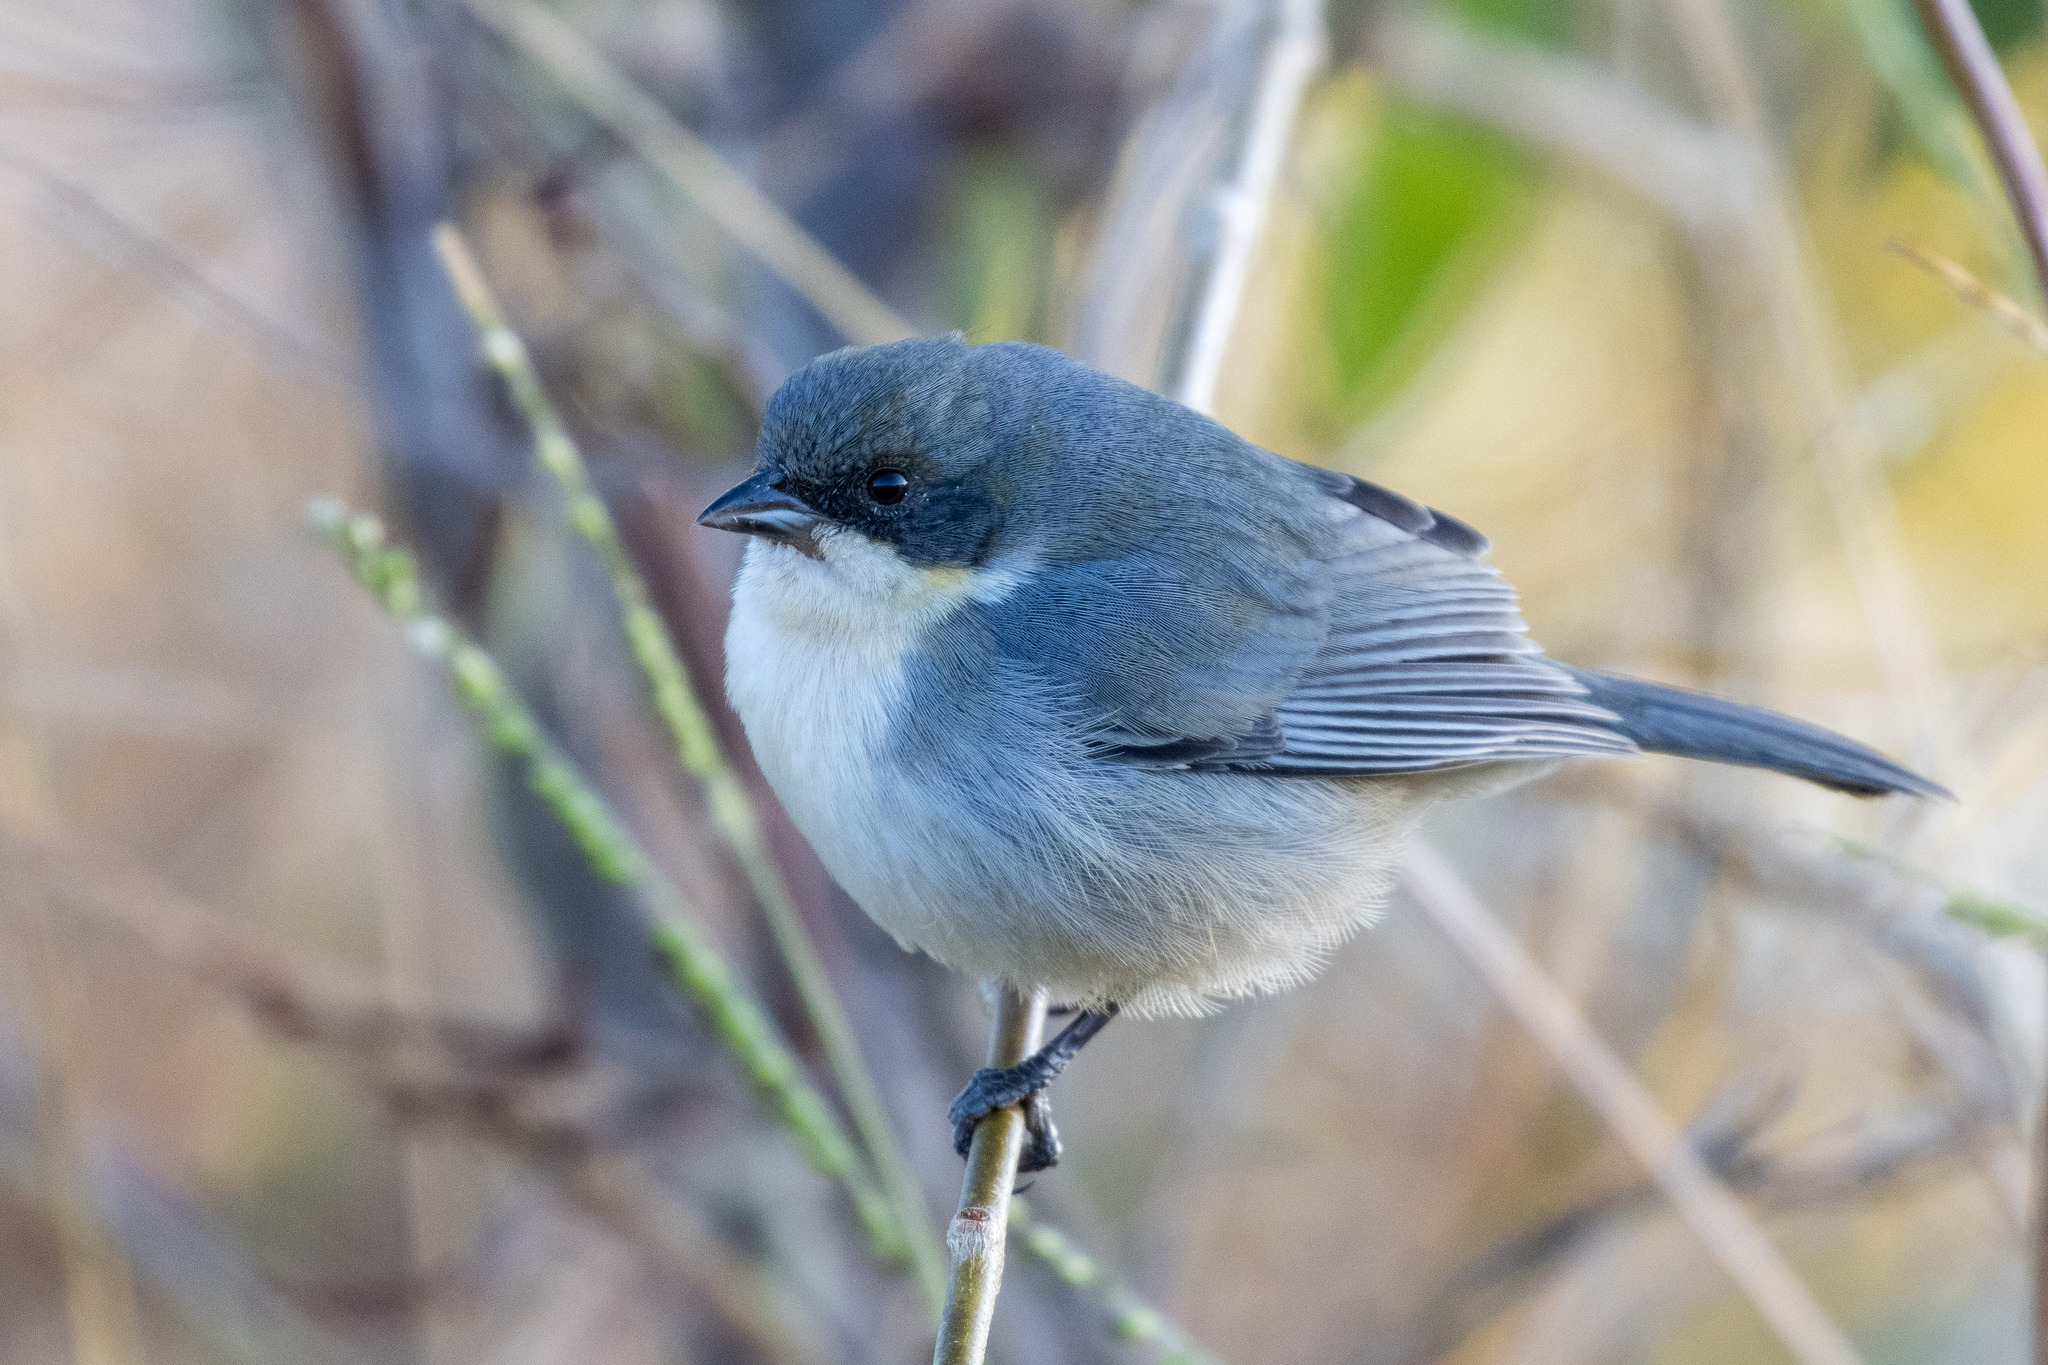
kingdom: Animalia
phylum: Chordata
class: Aves
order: Passeriformes
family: Thraupidae
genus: Microspingus
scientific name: Microspingus cinereus
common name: Cinereous warbling-finch
